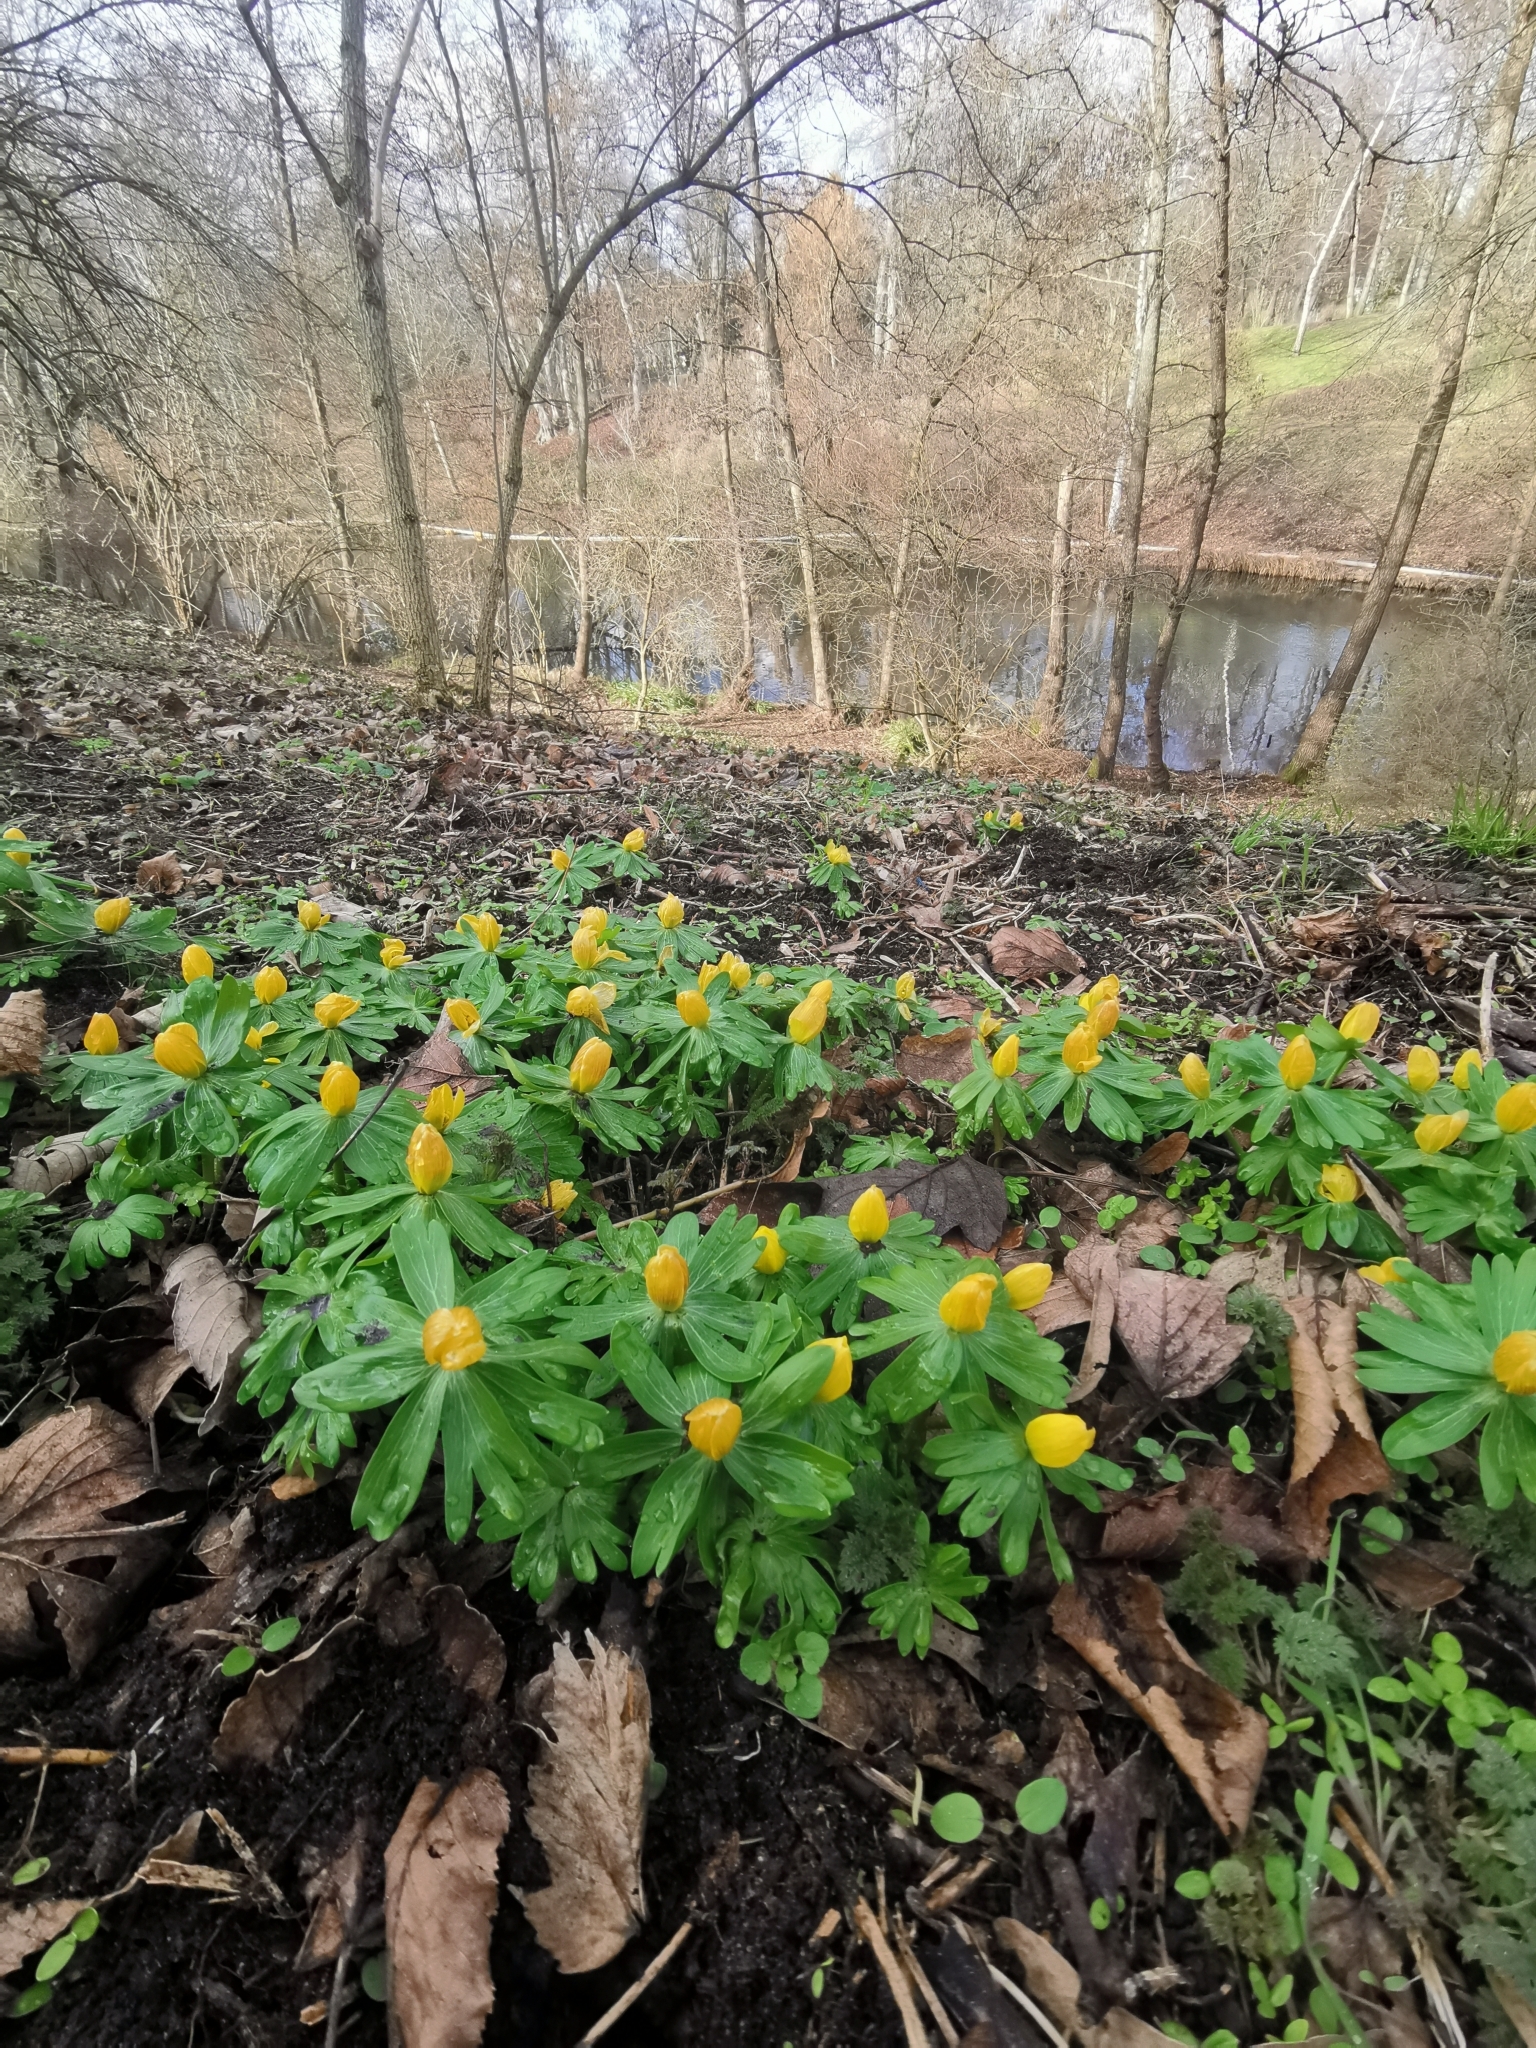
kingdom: Plantae
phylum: Tracheophyta
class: Magnoliopsida
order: Ranunculales
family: Ranunculaceae
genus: Eranthis
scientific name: Eranthis hyemalis
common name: Winter aconite
